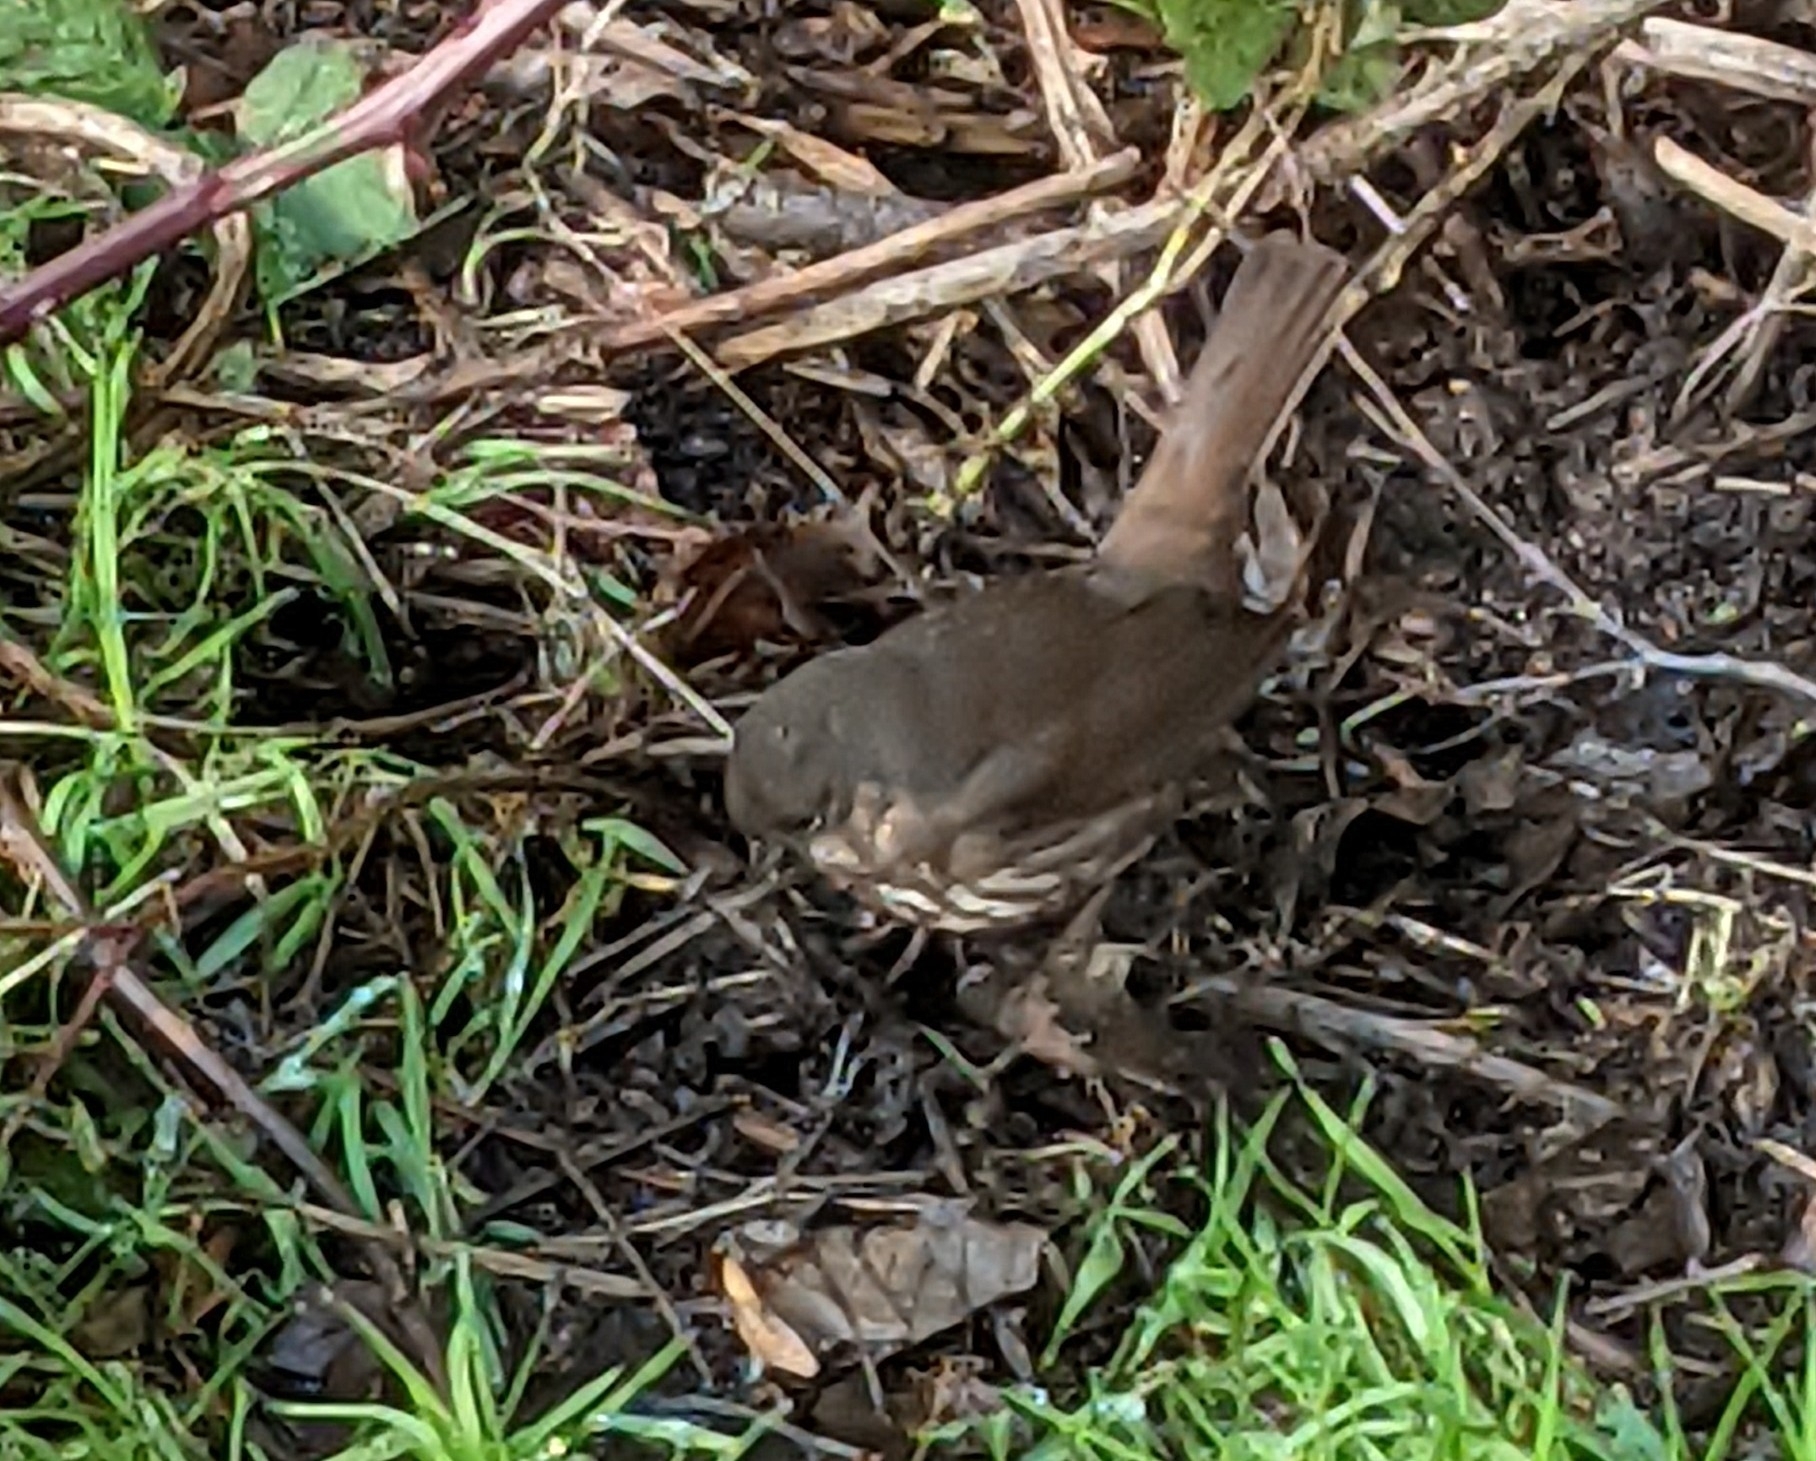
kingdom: Animalia
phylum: Chordata
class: Aves
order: Passeriformes
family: Passerellidae
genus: Passerella
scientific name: Passerella iliaca
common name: Fox sparrow
